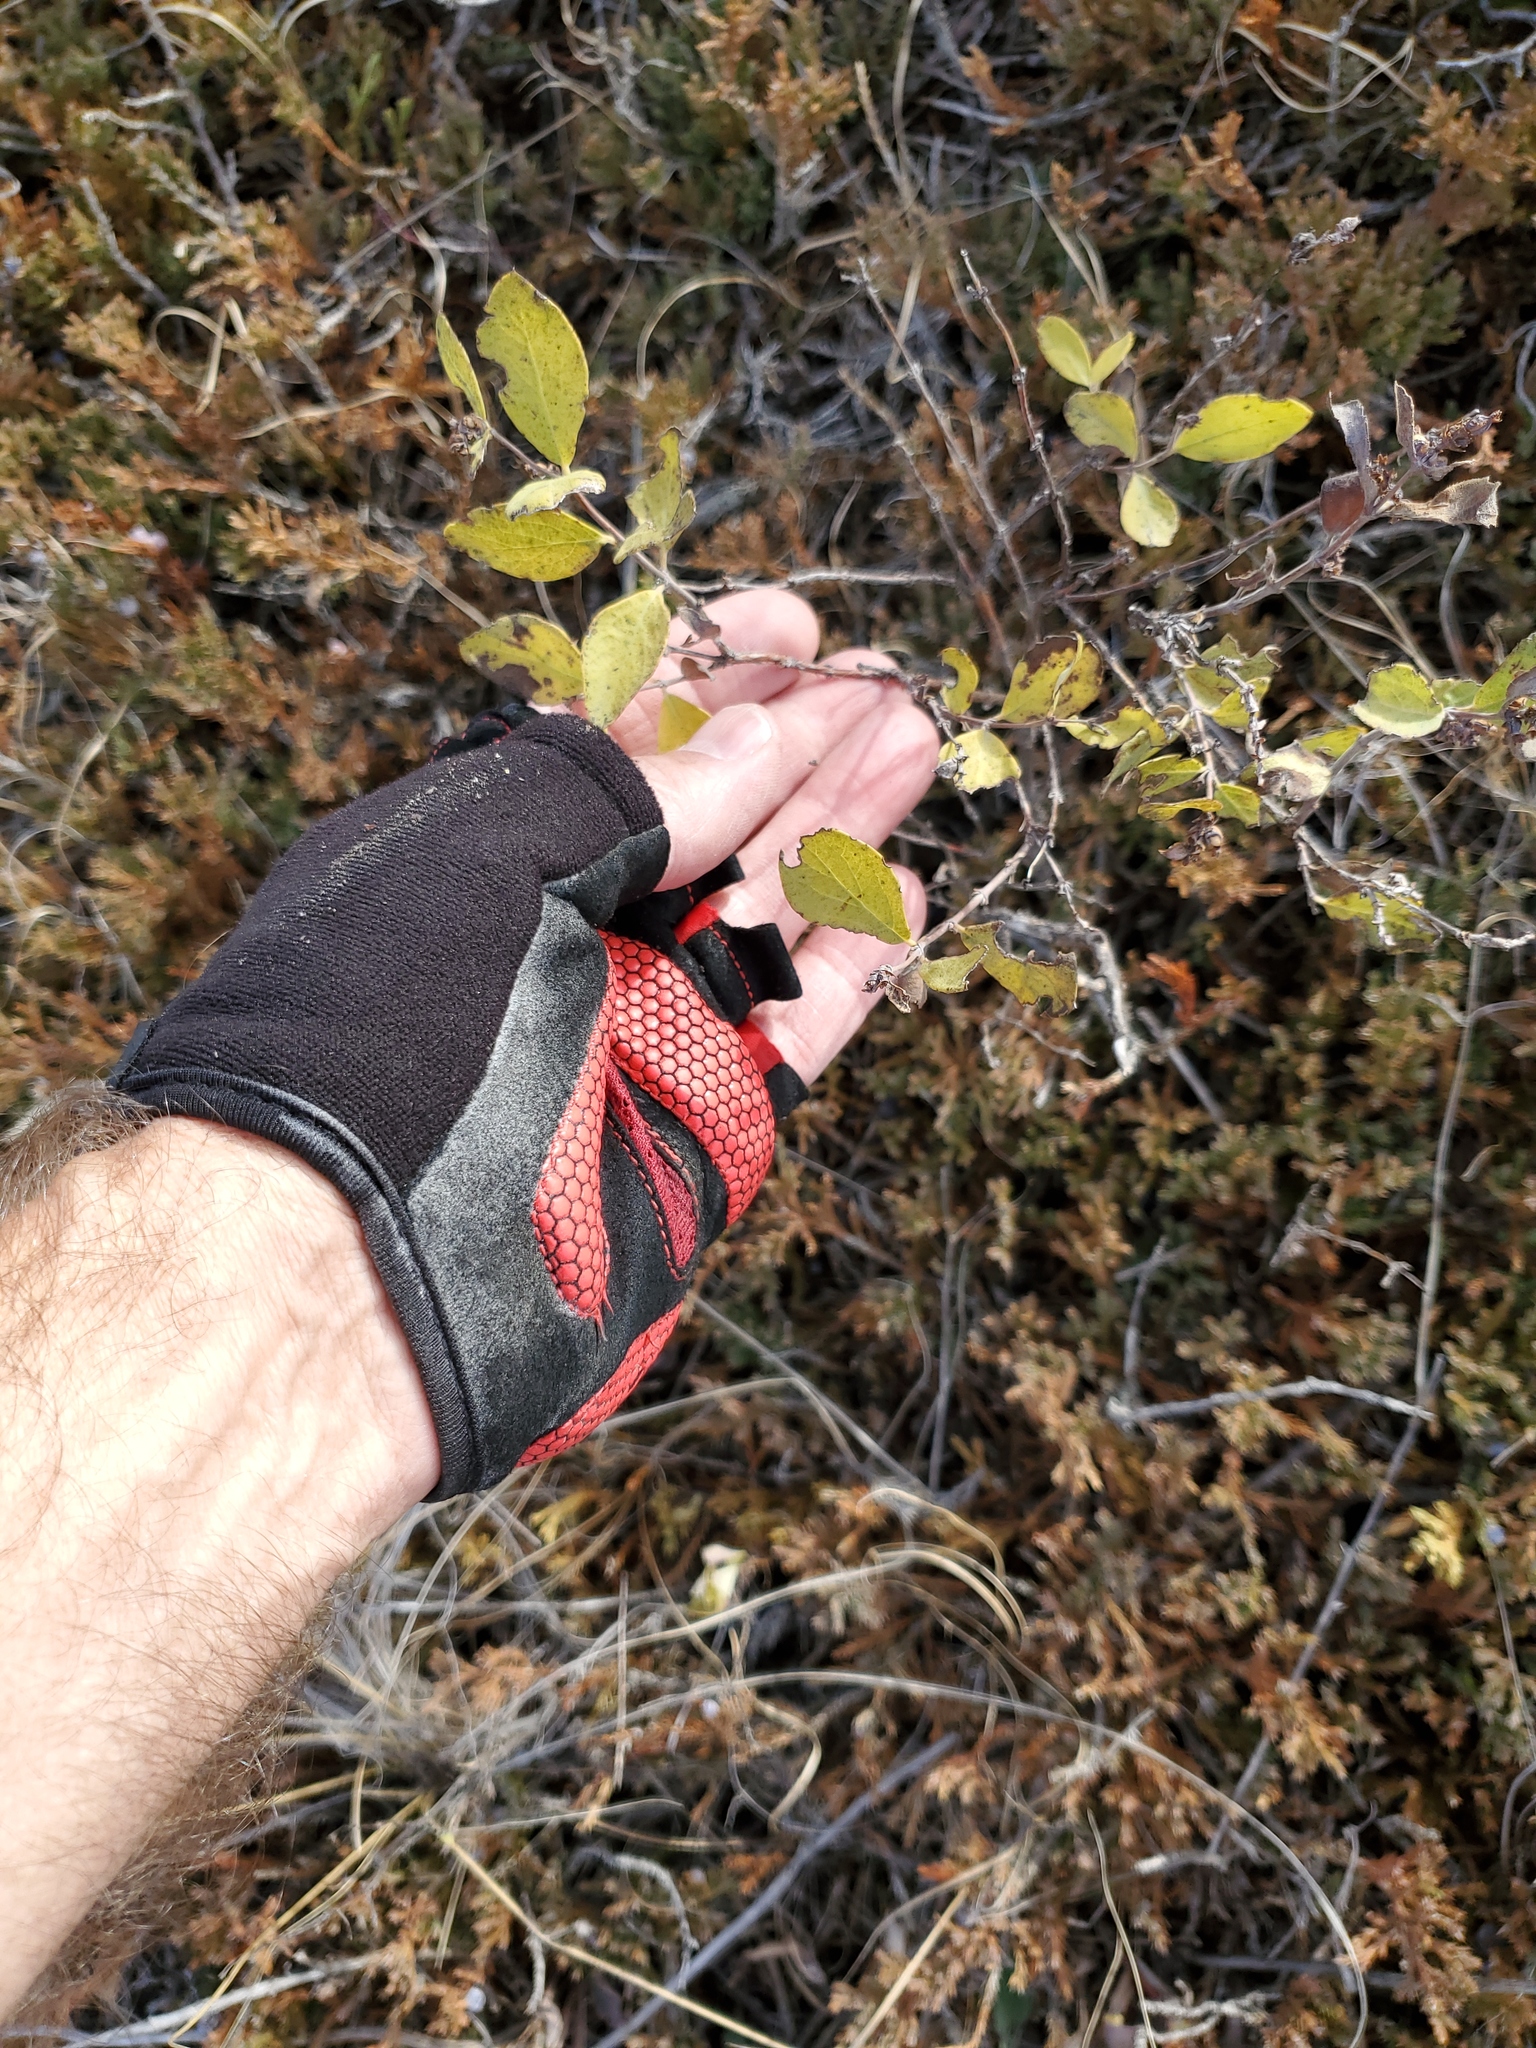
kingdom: Plantae
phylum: Tracheophyta
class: Magnoliopsida
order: Dipsacales
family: Caprifoliaceae
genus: Symphoricarpos
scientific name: Symphoricarpos occidentalis
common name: Wolfberry
